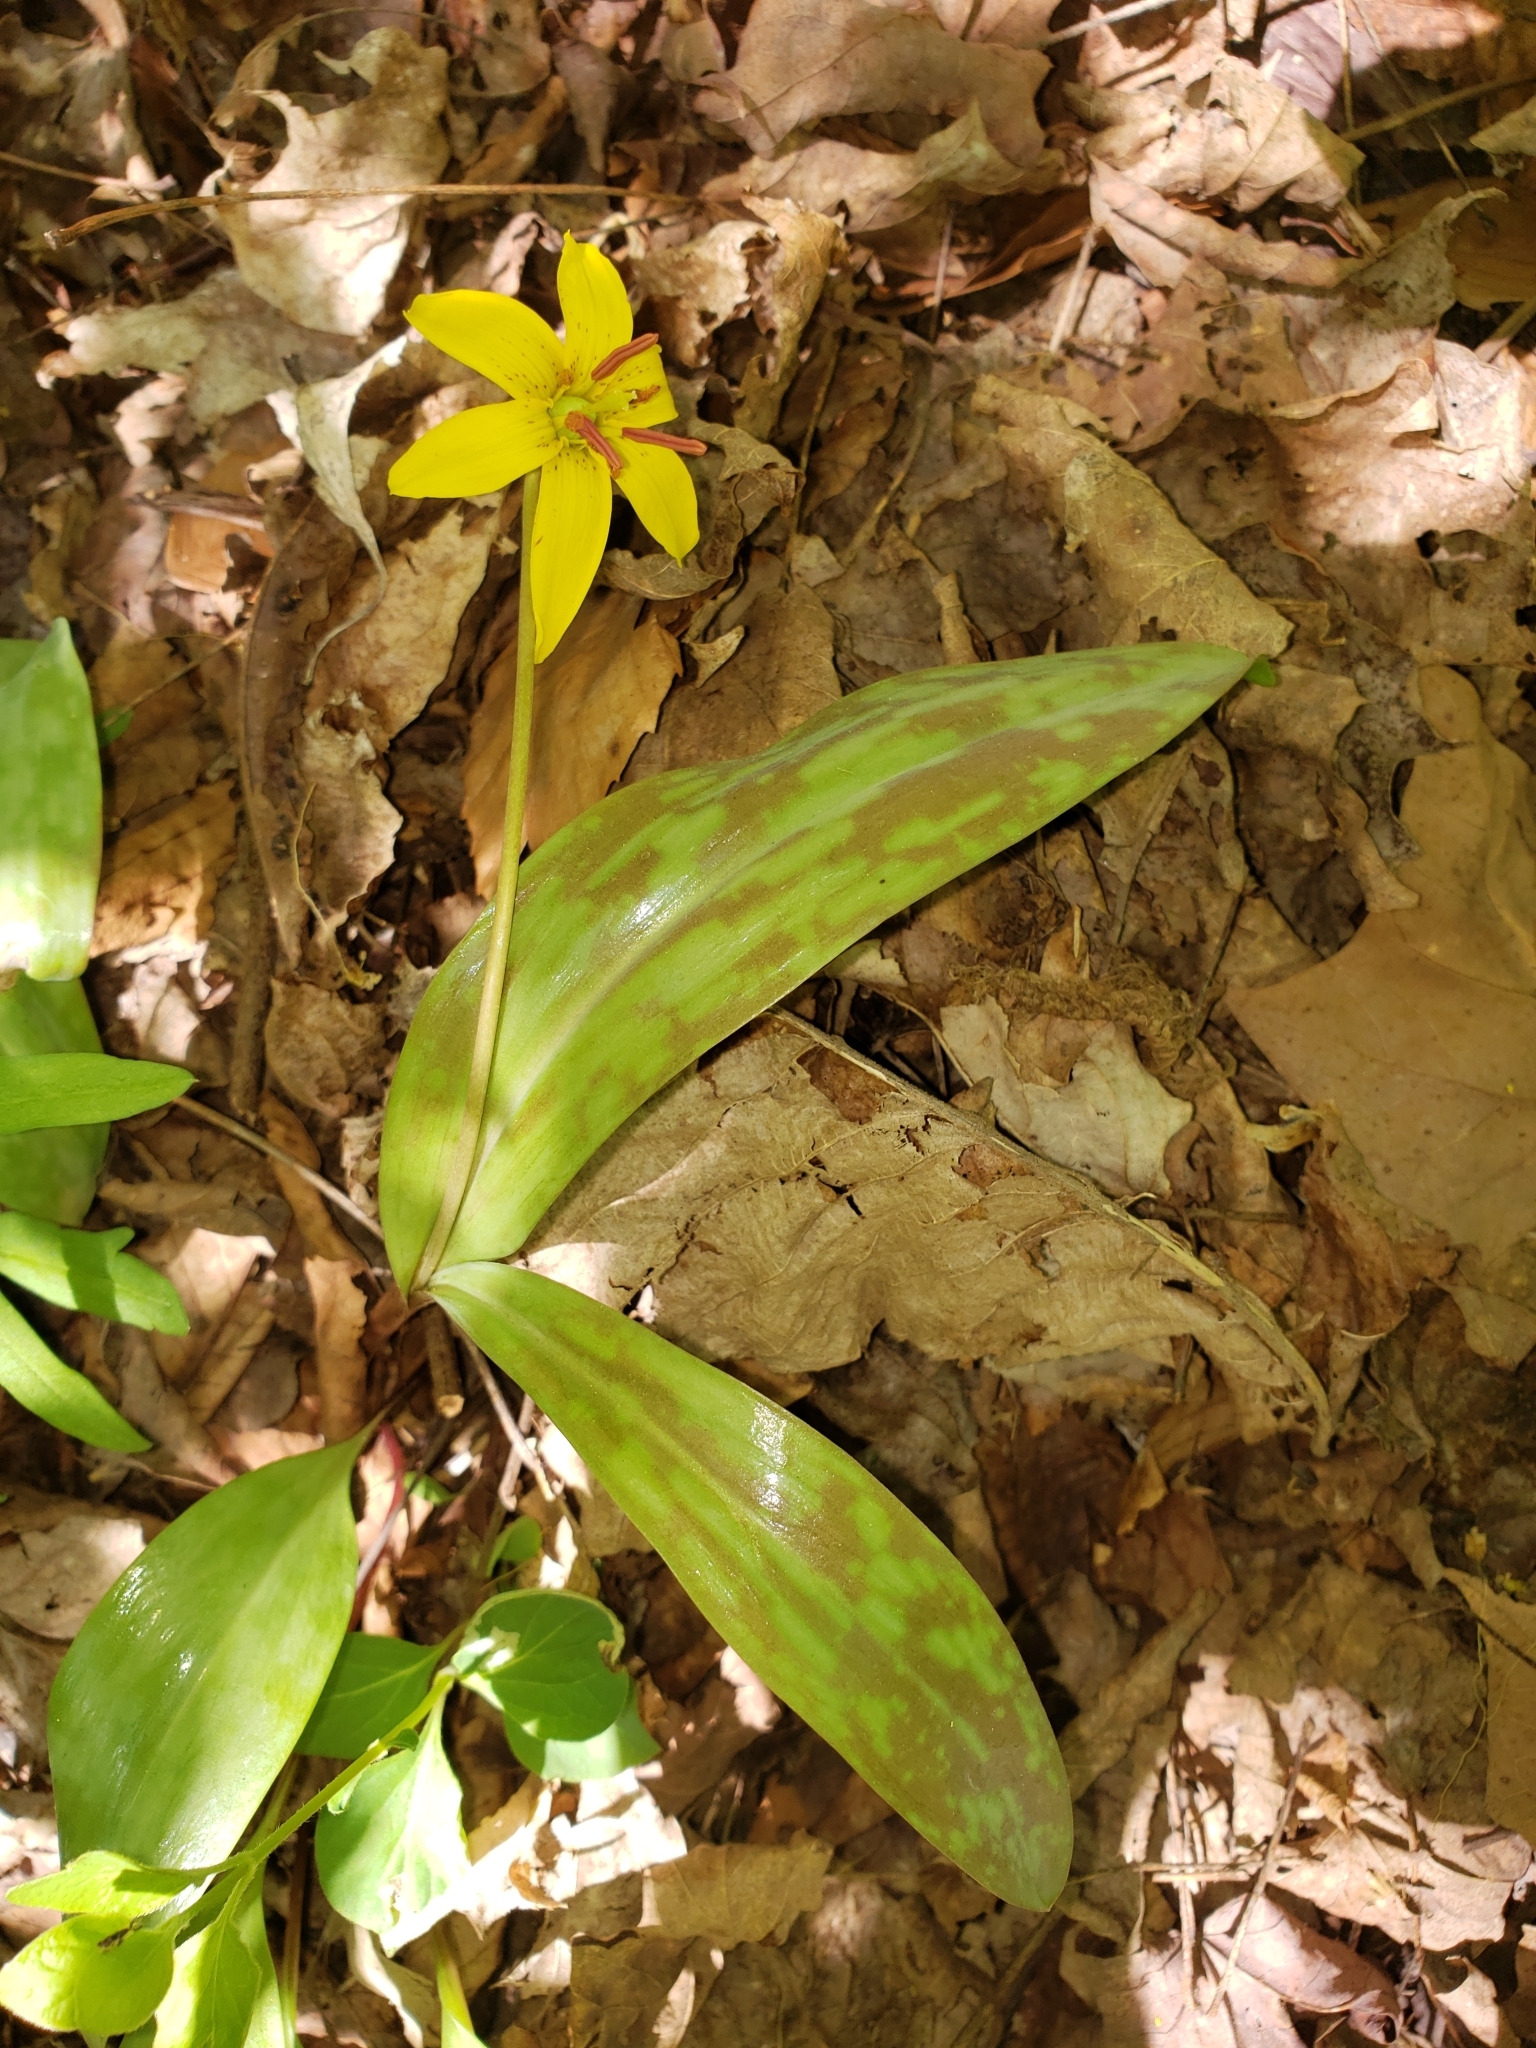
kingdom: Plantae
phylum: Tracheophyta
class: Liliopsida
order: Liliales
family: Liliaceae
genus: Erythronium
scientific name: Erythronium americanum
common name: Yellow adder's-tongue
